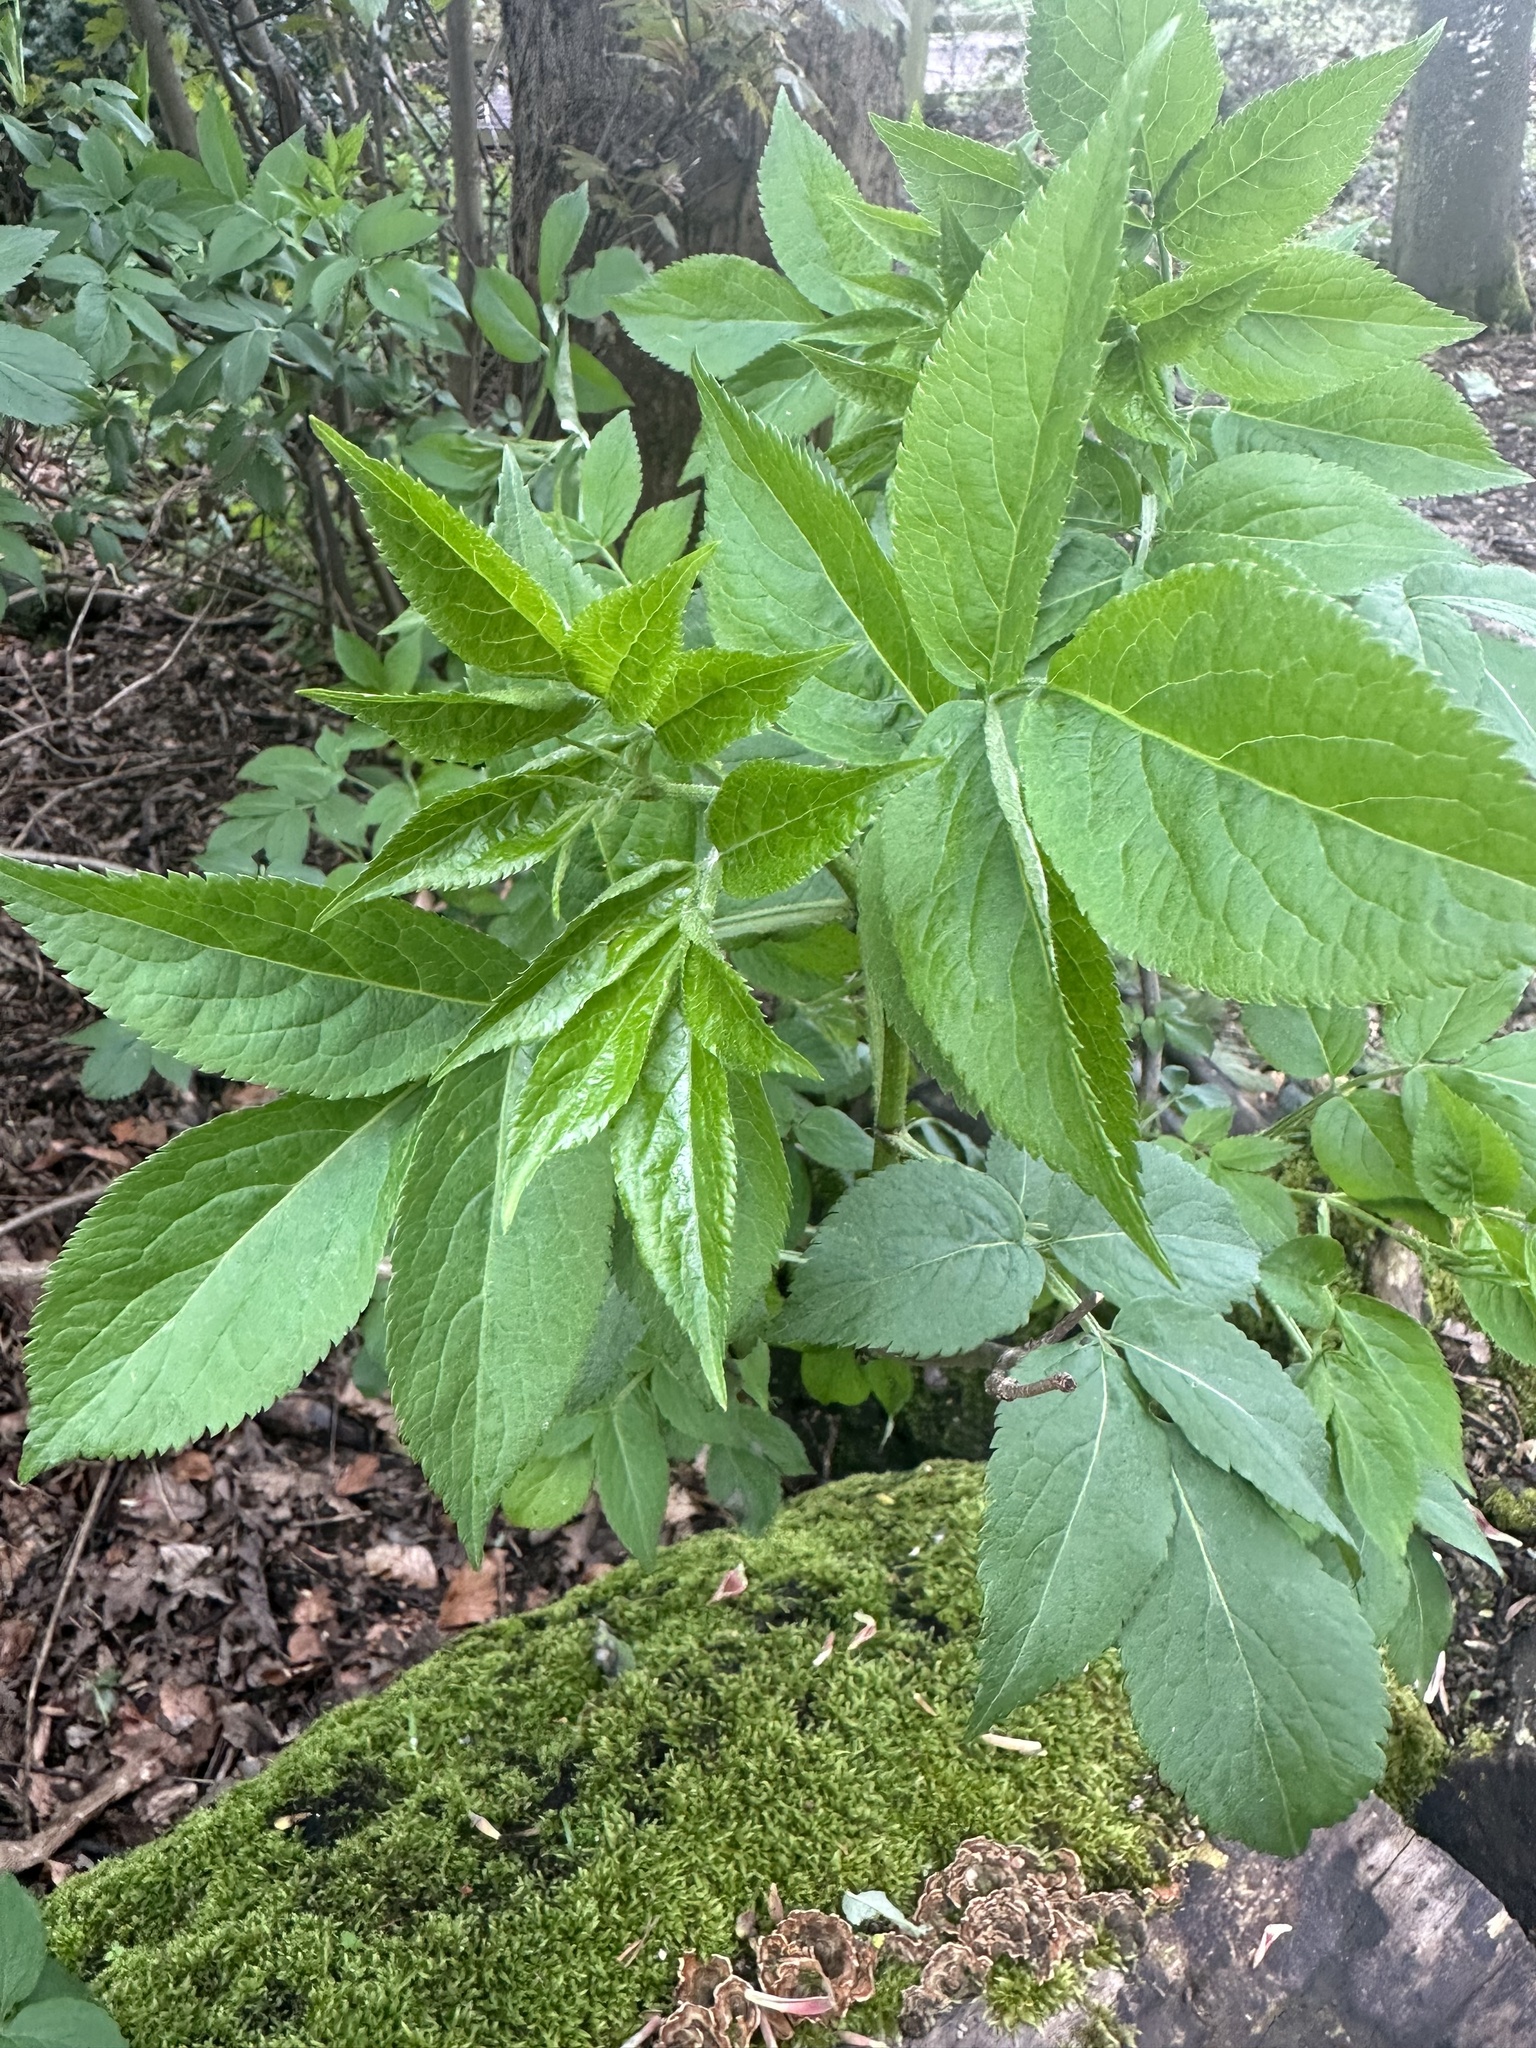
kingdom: Plantae
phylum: Tracheophyta
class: Magnoliopsida
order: Dipsacales
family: Viburnaceae
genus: Sambucus
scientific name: Sambucus nigra
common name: Elder
